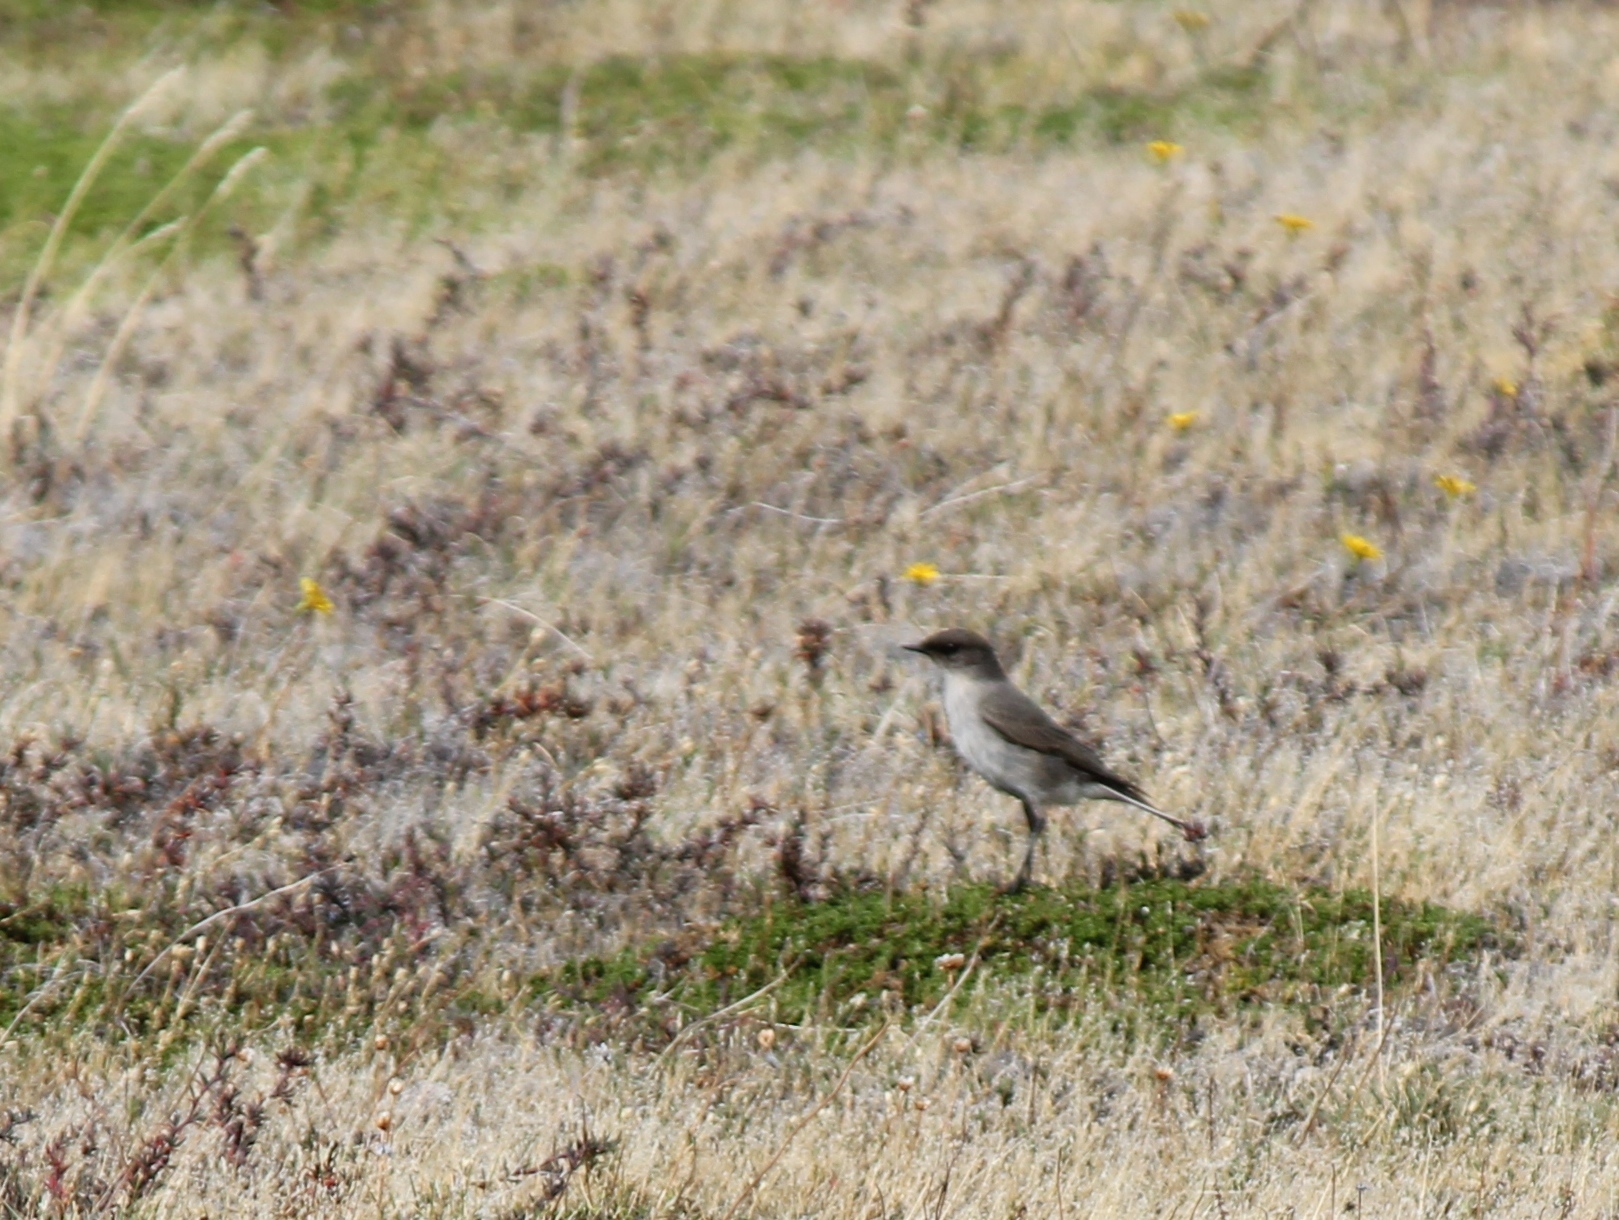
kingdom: Animalia
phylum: Chordata
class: Aves
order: Passeriformes
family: Tyrannidae
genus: Muscisaxicola
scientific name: Muscisaxicola maclovianus
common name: Dark-faced ground tyrant
